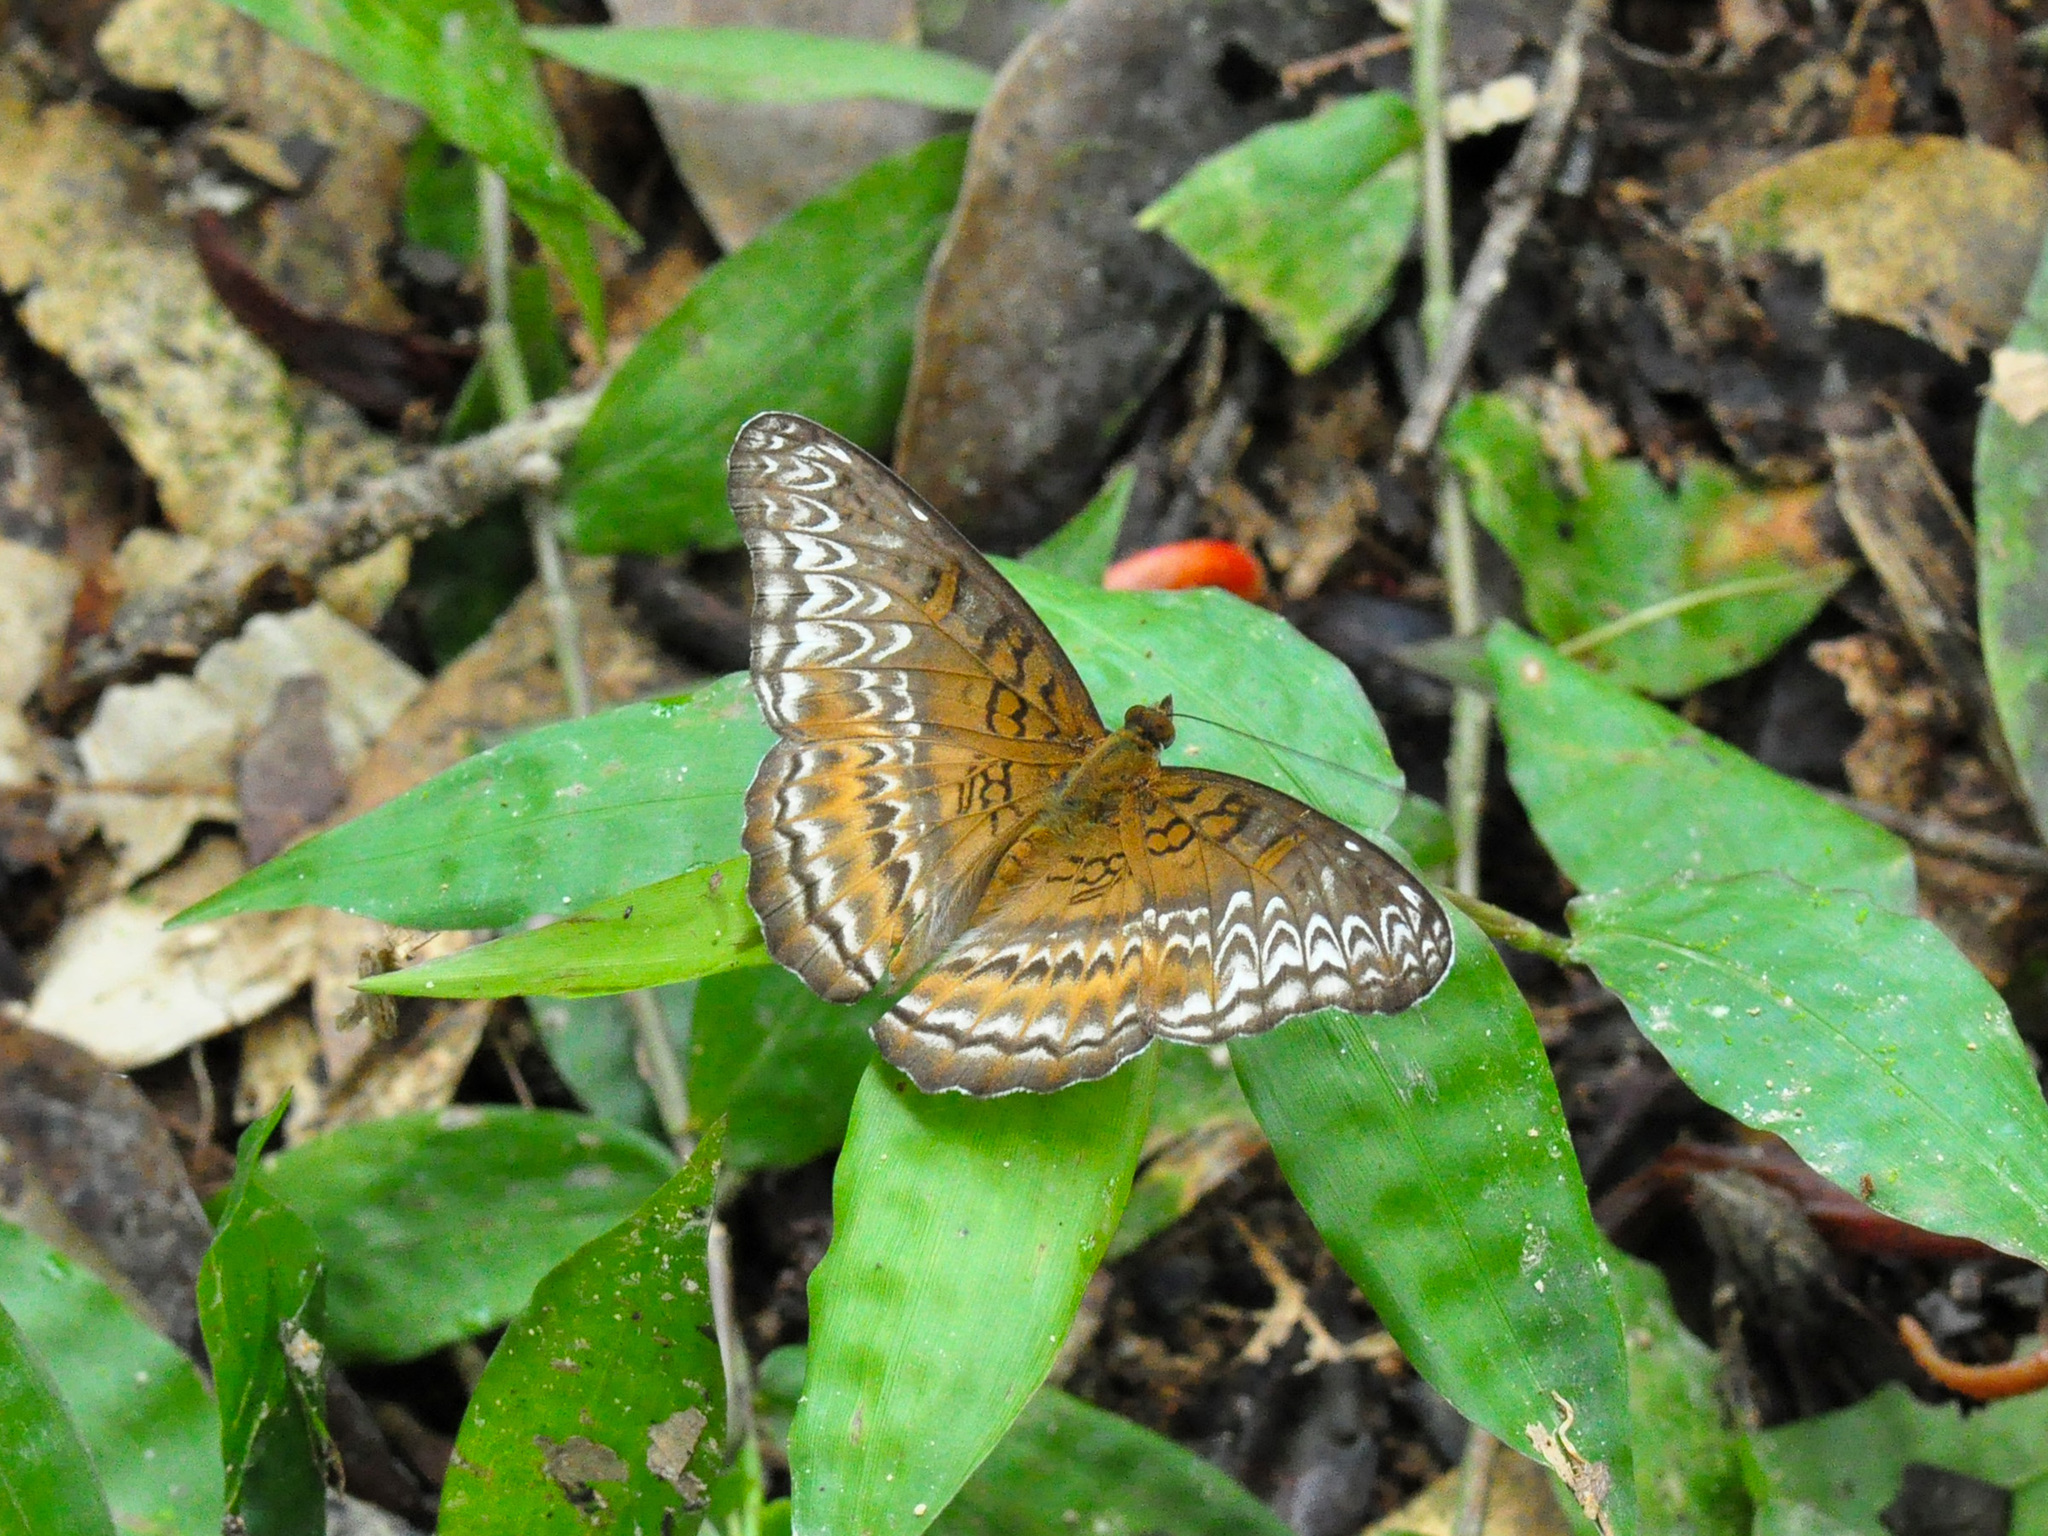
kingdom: Animalia
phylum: Arthropoda
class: Insecta
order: Lepidoptera
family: Nymphalidae
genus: Lebadea
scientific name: Lebadea martha
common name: Knight
